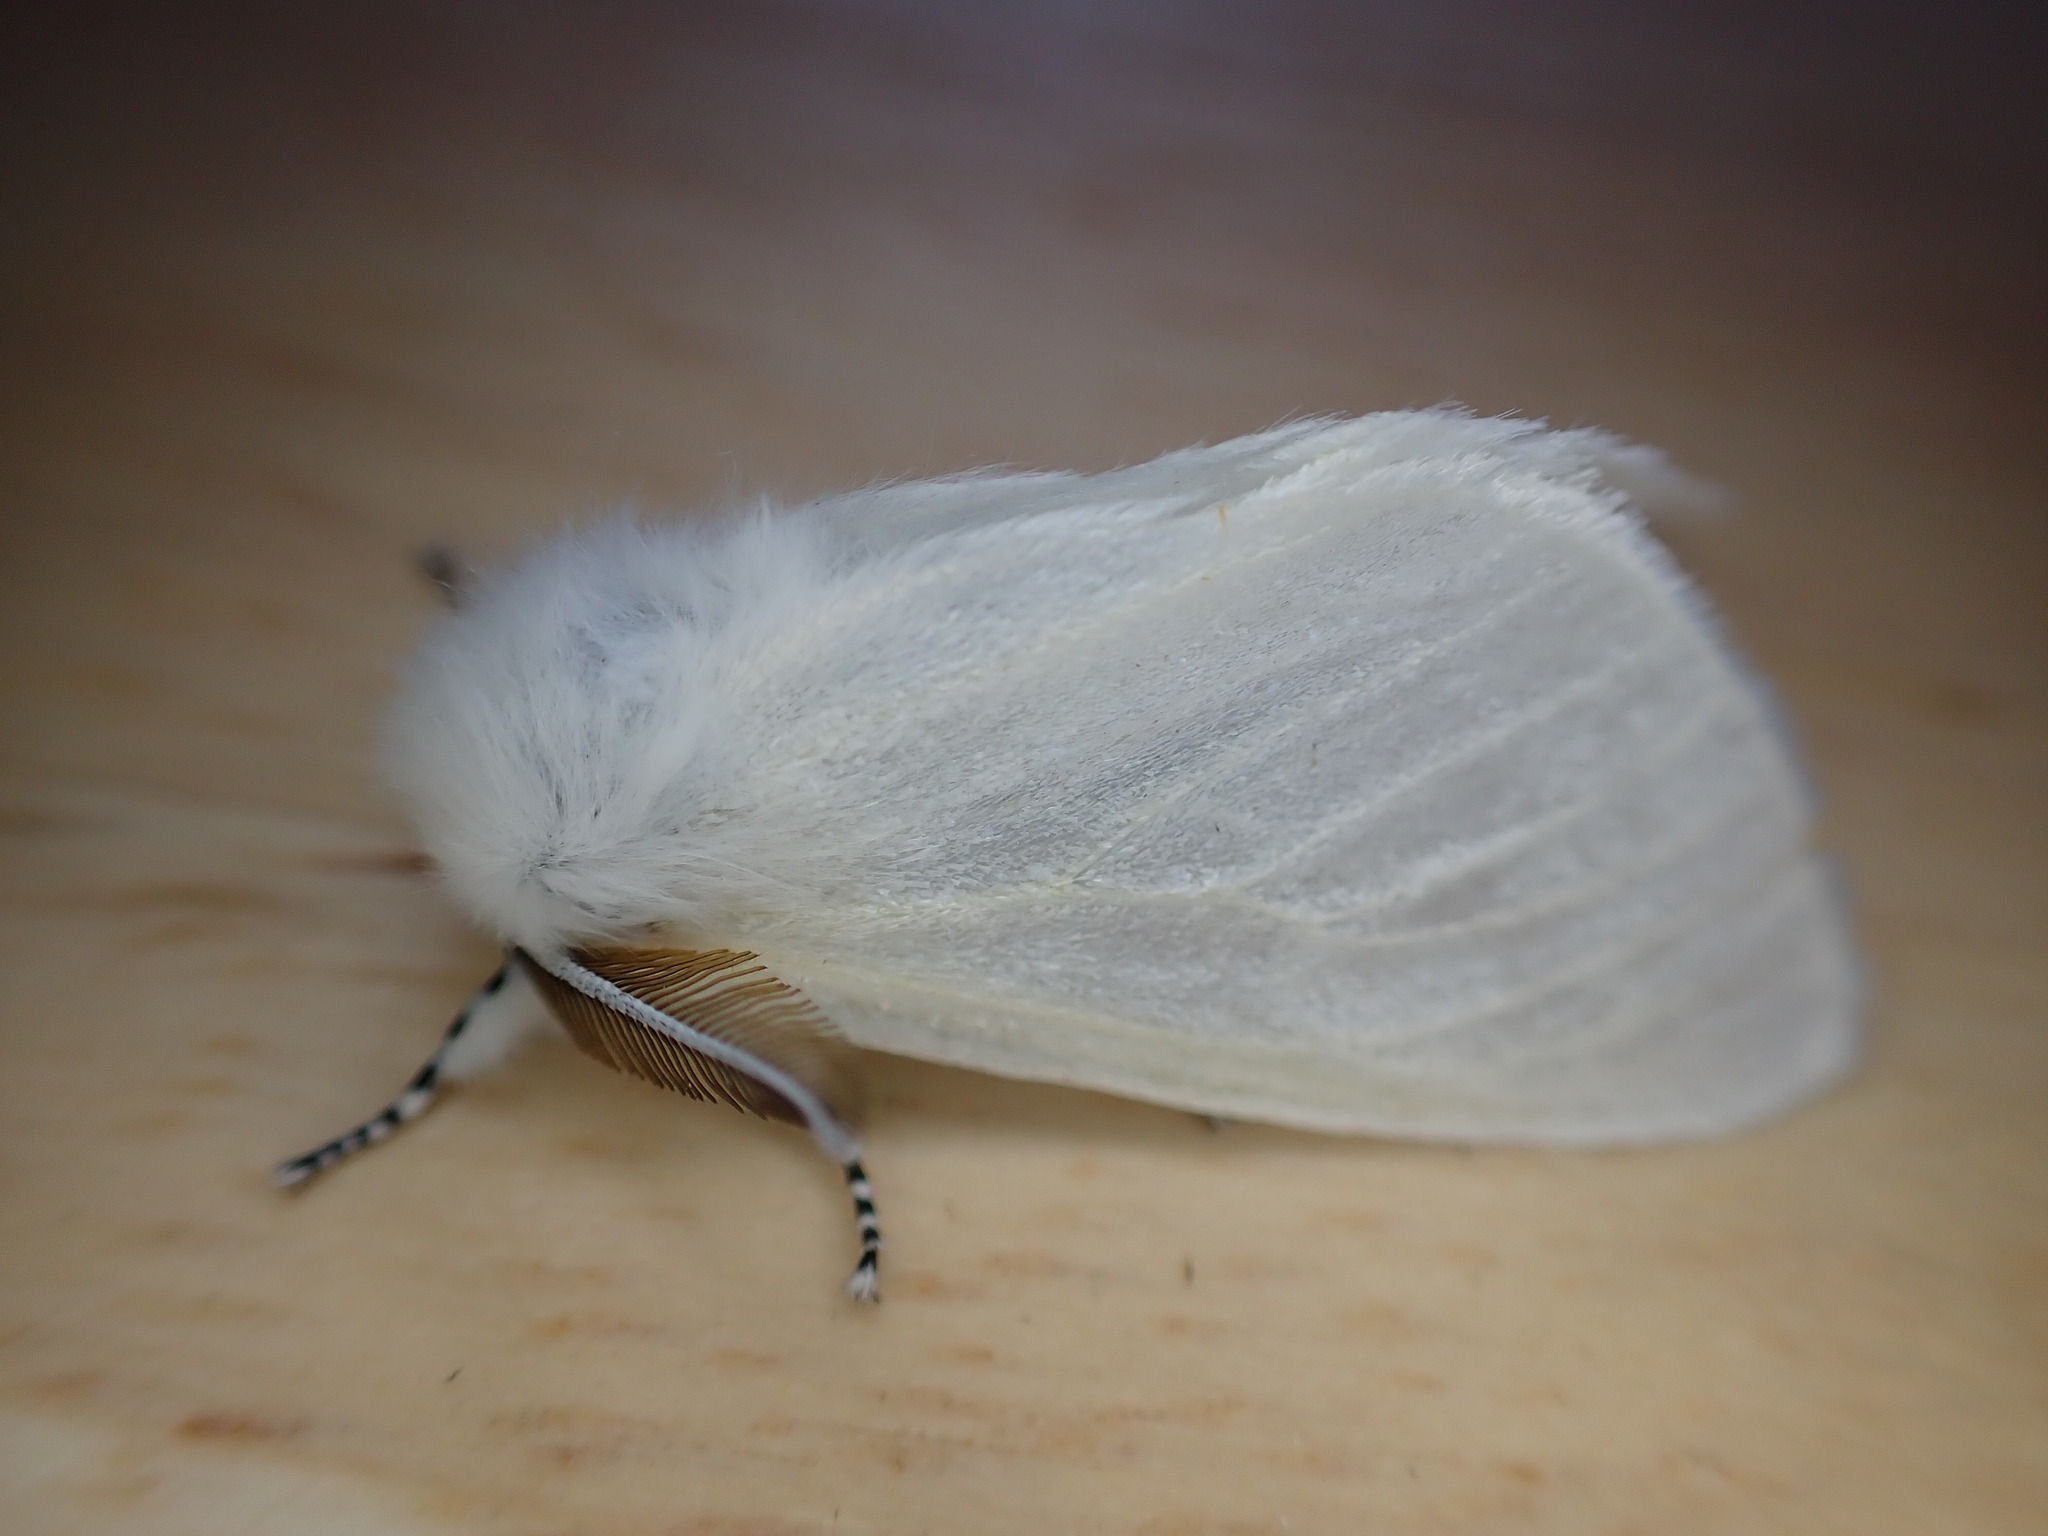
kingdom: Animalia
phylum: Arthropoda
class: Insecta
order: Lepidoptera
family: Erebidae
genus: Leucoma
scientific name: Leucoma salicis
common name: White satin moth
